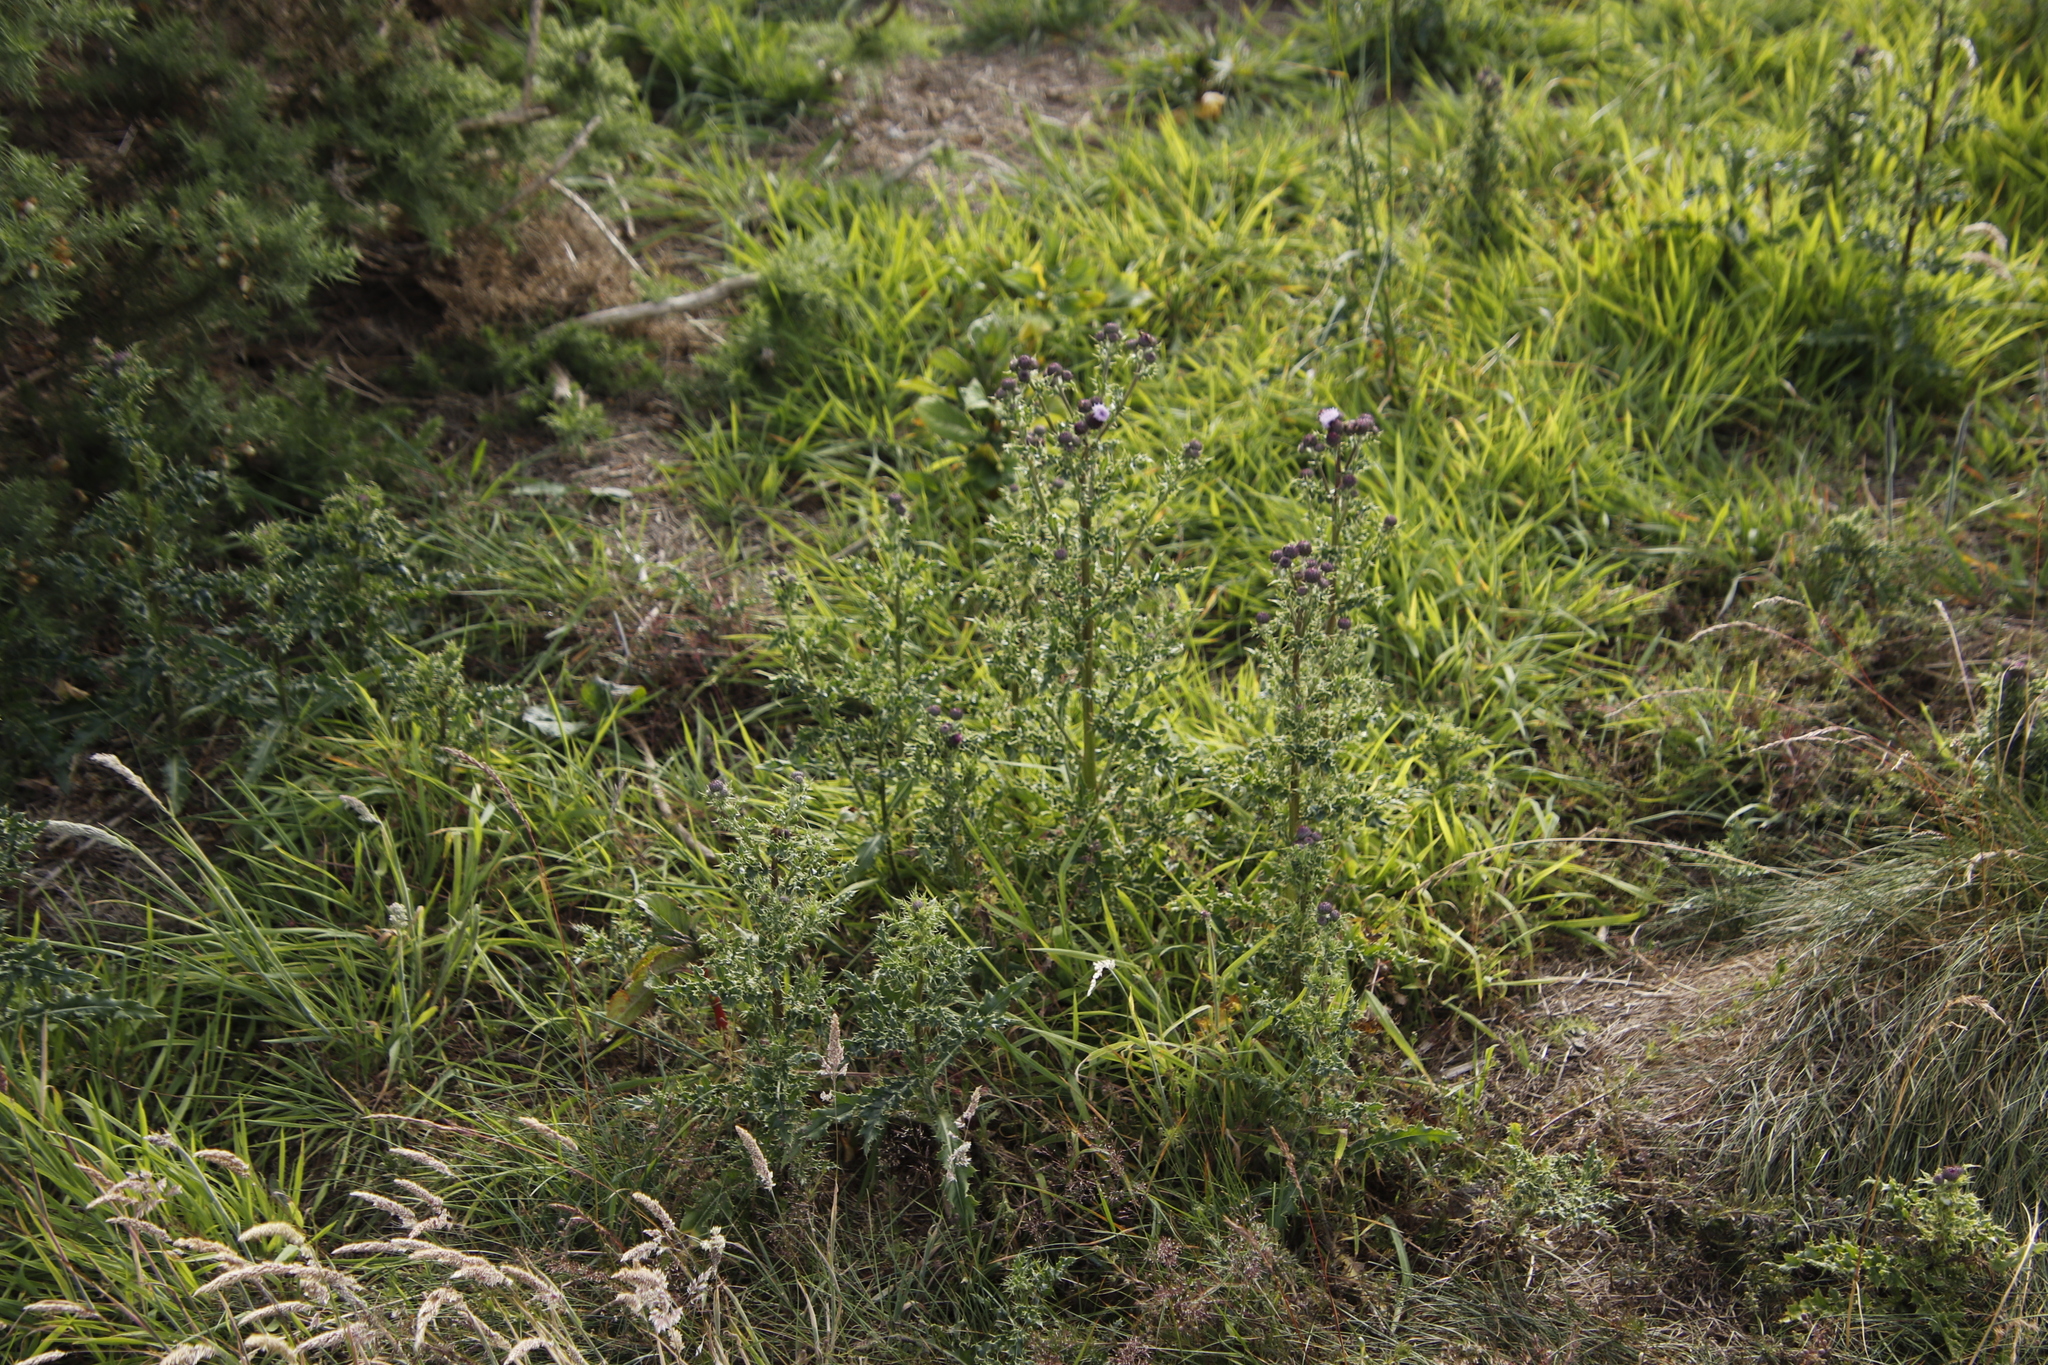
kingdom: Plantae
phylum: Tracheophyta
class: Magnoliopsida
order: Asterales
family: Asteraceae
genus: Cirsium
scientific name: Cirsium arvense
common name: Creeping thistle
